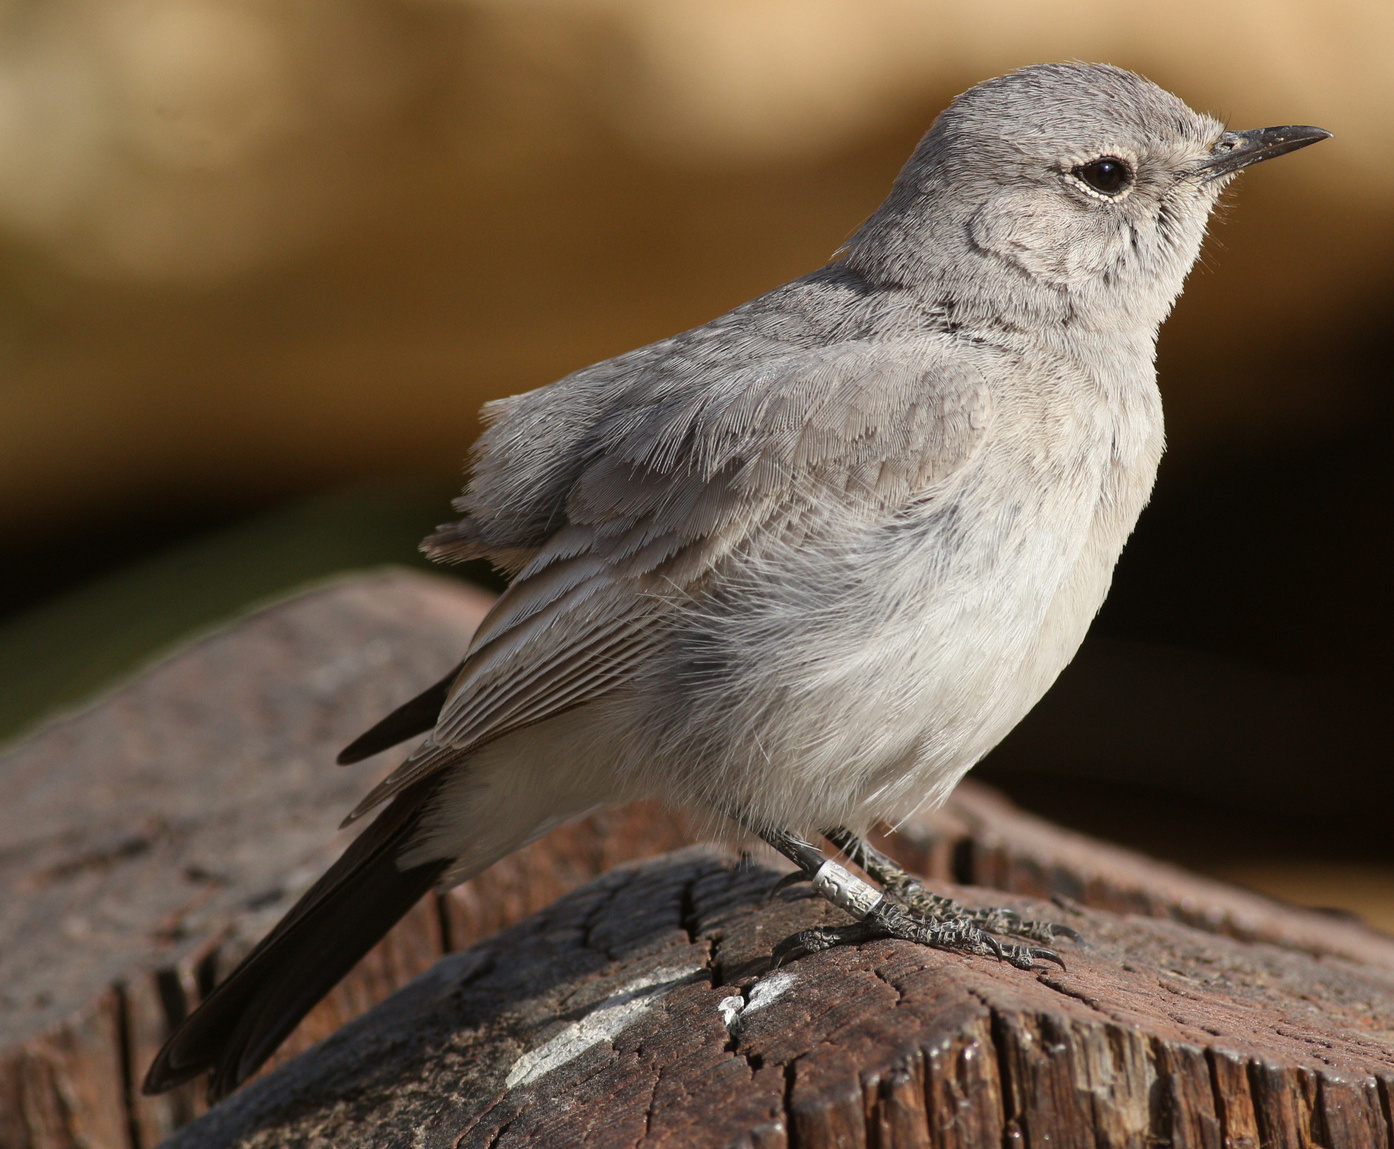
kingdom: Animalia
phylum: Chordata
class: Aves
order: Passeriformes
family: Muscicapidae
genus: Oenanthe
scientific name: Oenanthe melanura
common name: Blackstart
